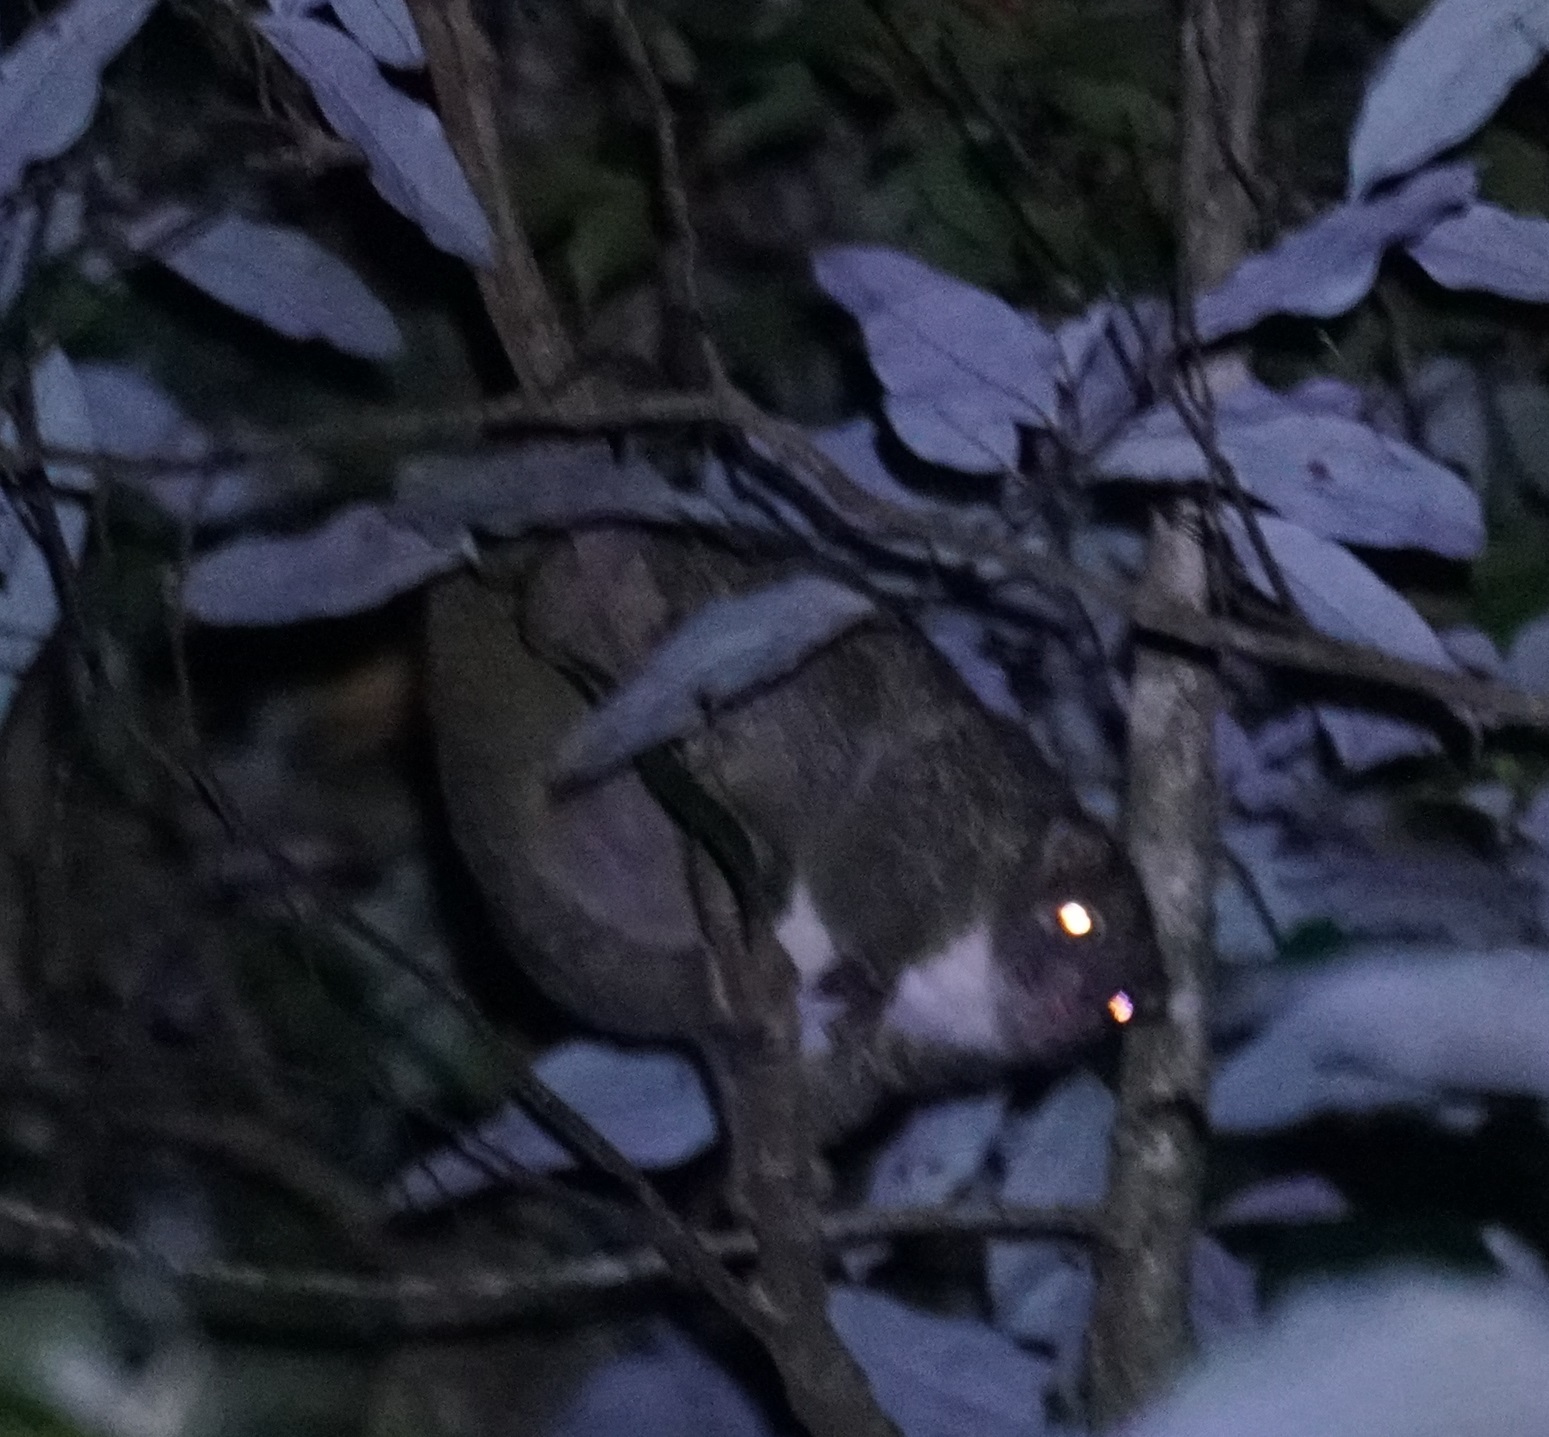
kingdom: Animalia
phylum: Chordata
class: Mammalia
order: Diprotodontia
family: Pseudocheiridae
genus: Pseudochirops
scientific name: Pseudochirops archeri
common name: Green ringtail
